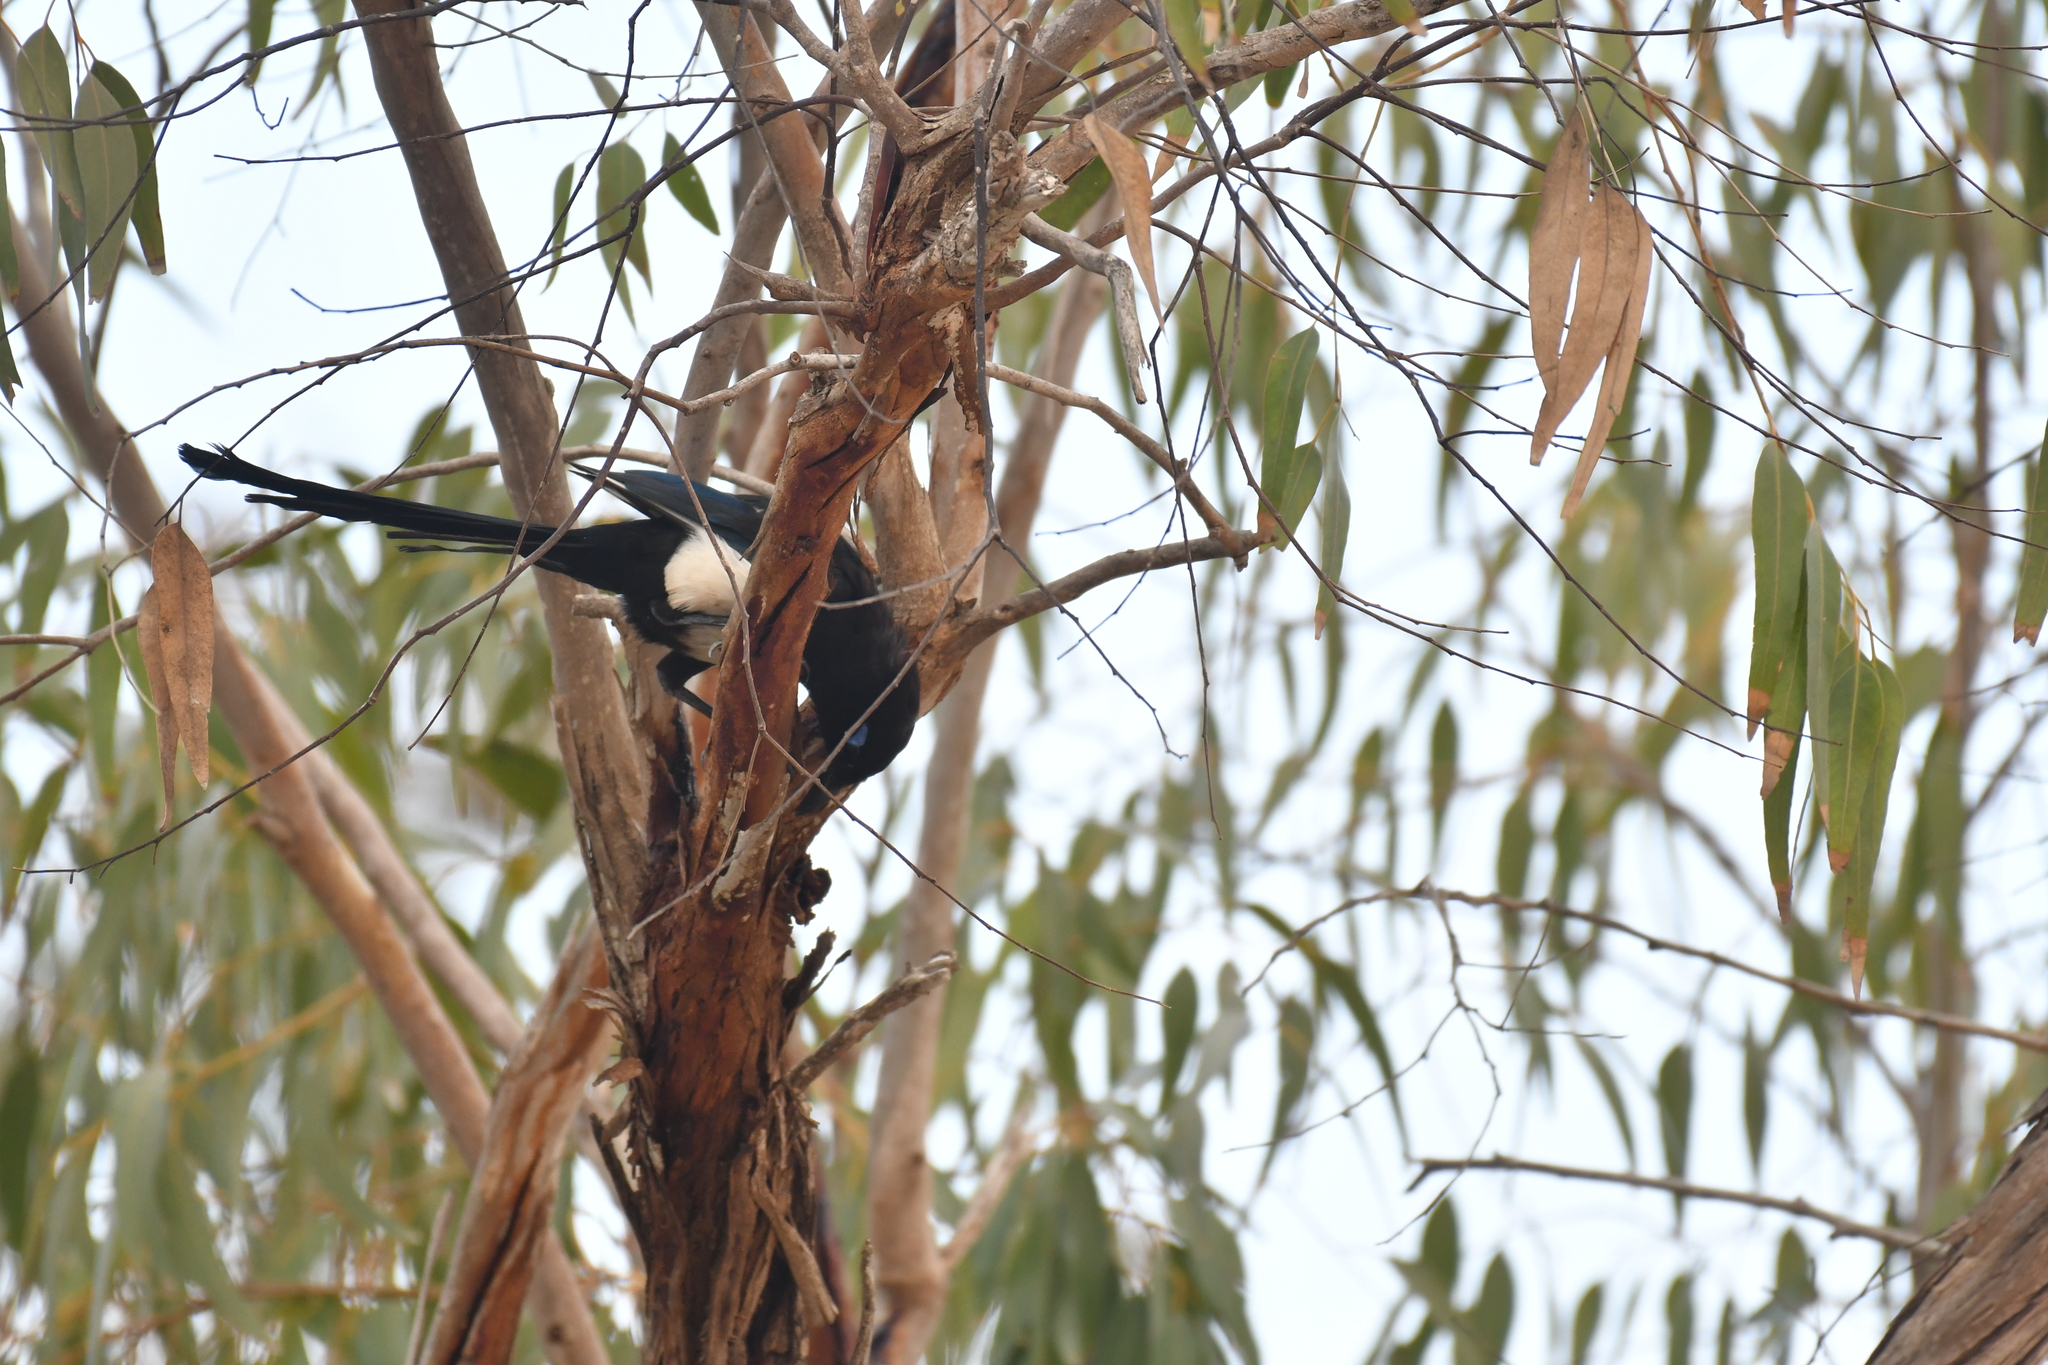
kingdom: Animalia
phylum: Chordata
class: Aves
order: Passeriformes
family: Corvidae
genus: Pica
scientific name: Pica mauritanica
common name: Maghreb magpie
